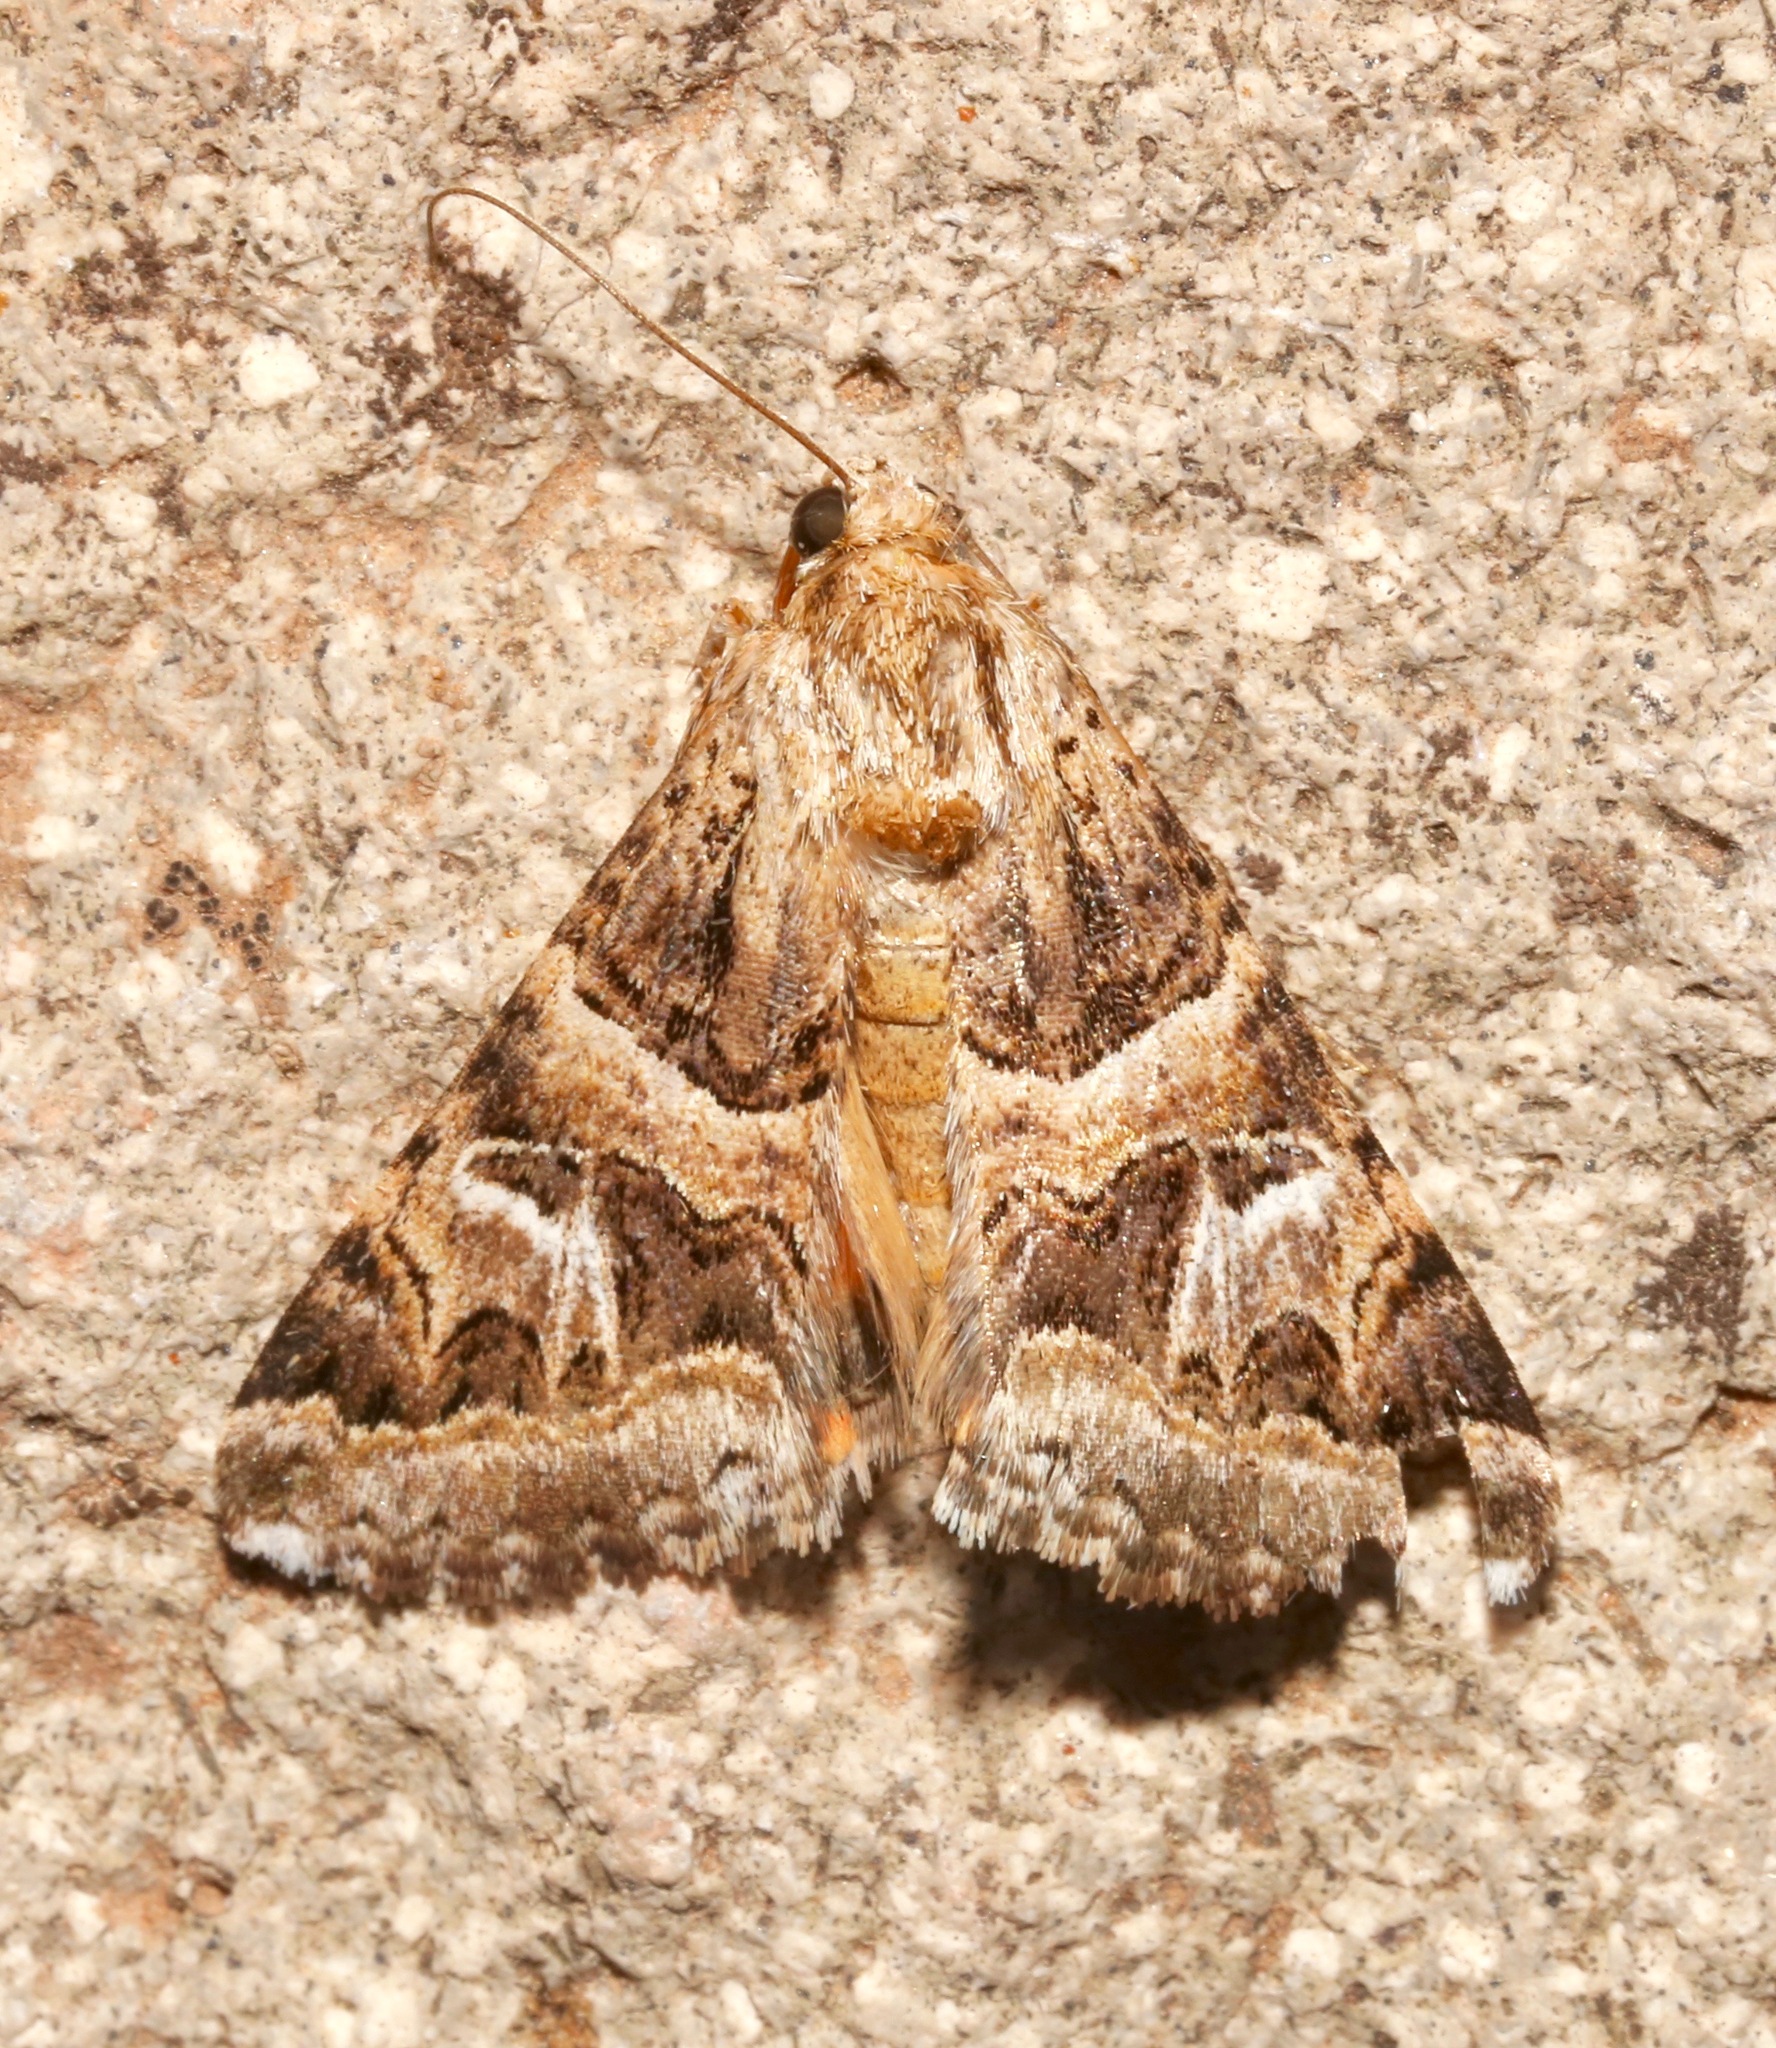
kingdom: Animalia
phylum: Arthropoda
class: Insecta
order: Lepidoptera
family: Erebidae
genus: Drasteria
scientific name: Drasteria mirifica
